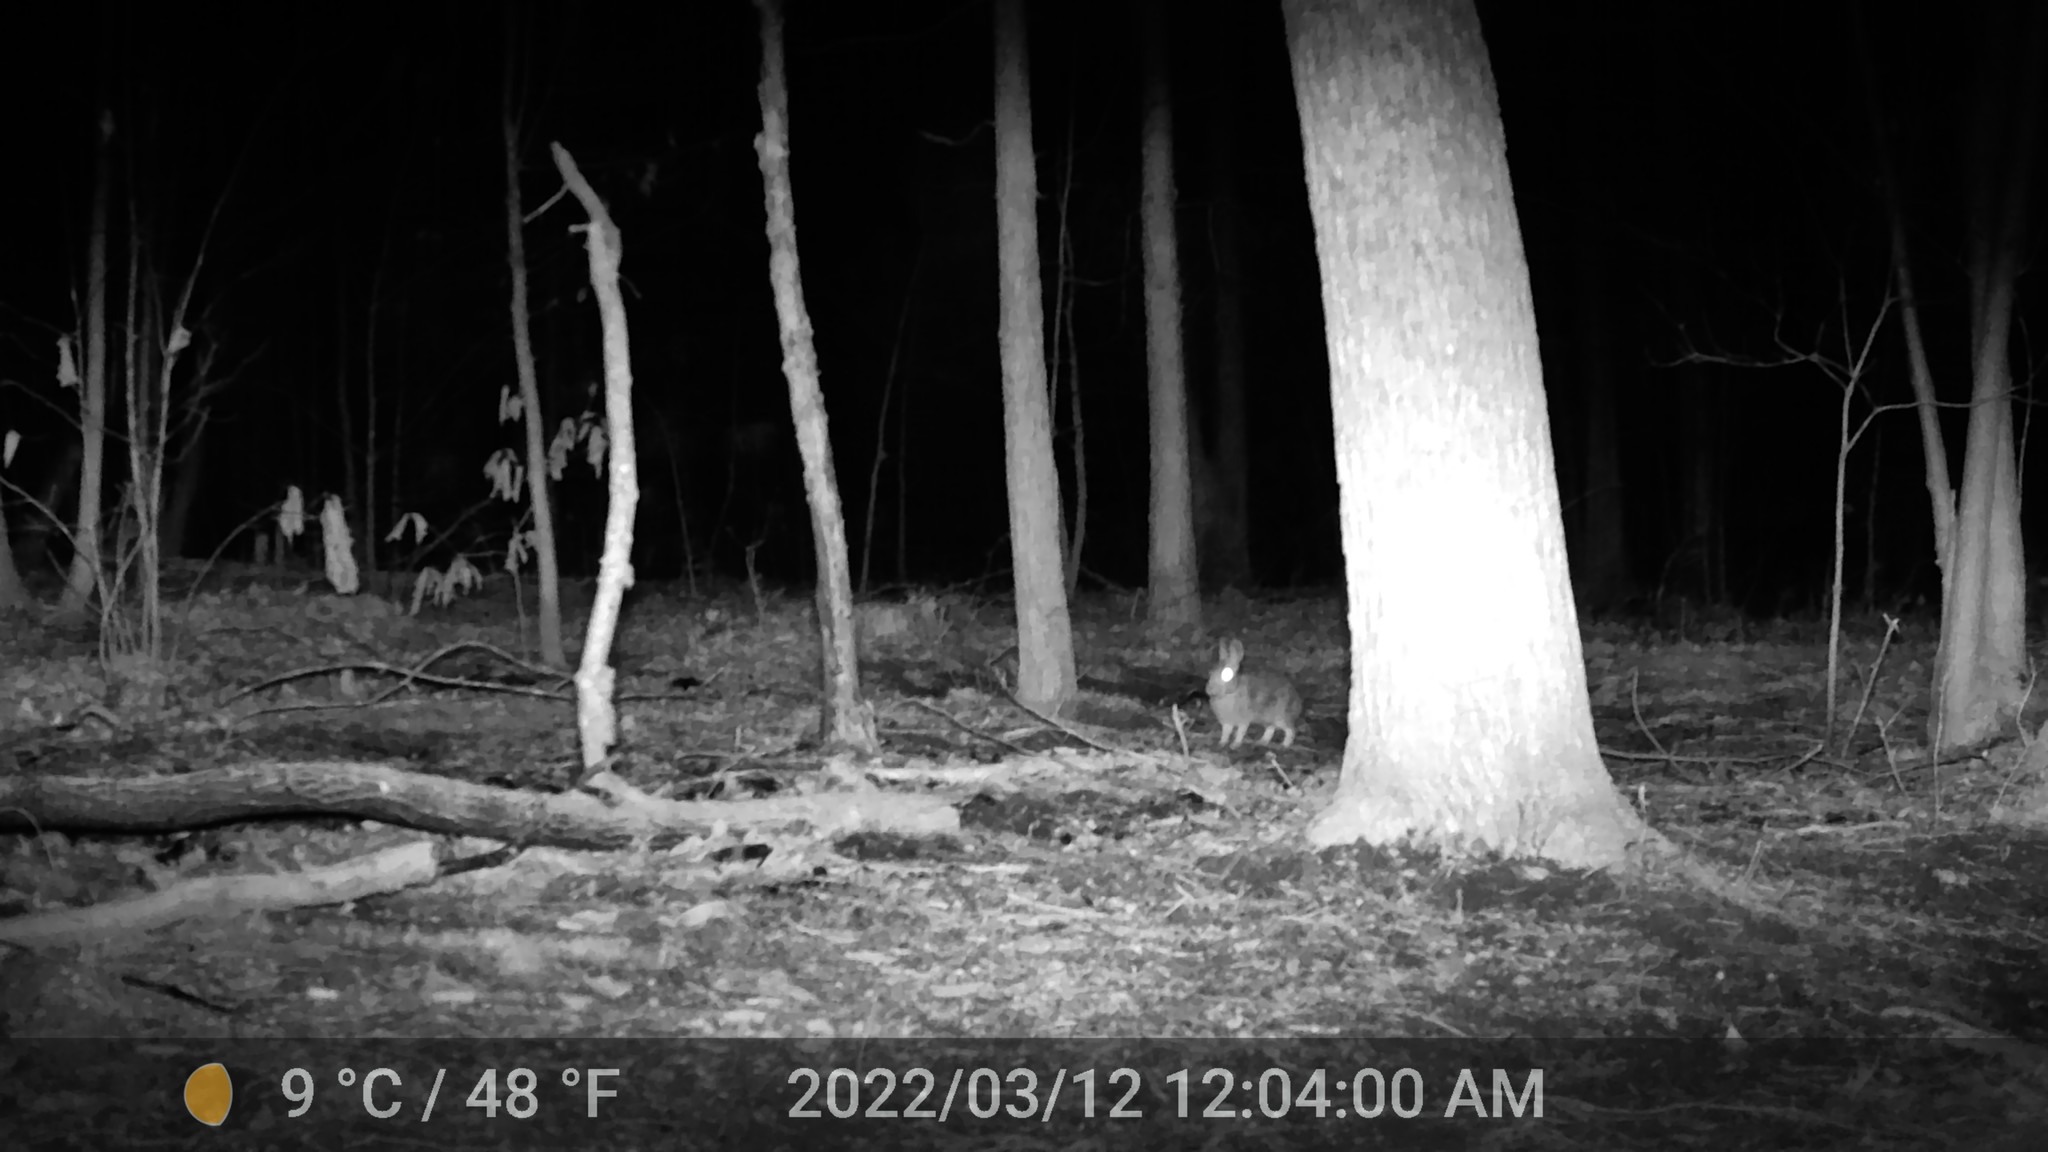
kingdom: Animalia
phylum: Chordata
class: Mammalia
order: Lagomorpha
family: Leporidae
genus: Sylvilagus
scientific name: Sylvilagus floridanus
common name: Eastern cottontail
